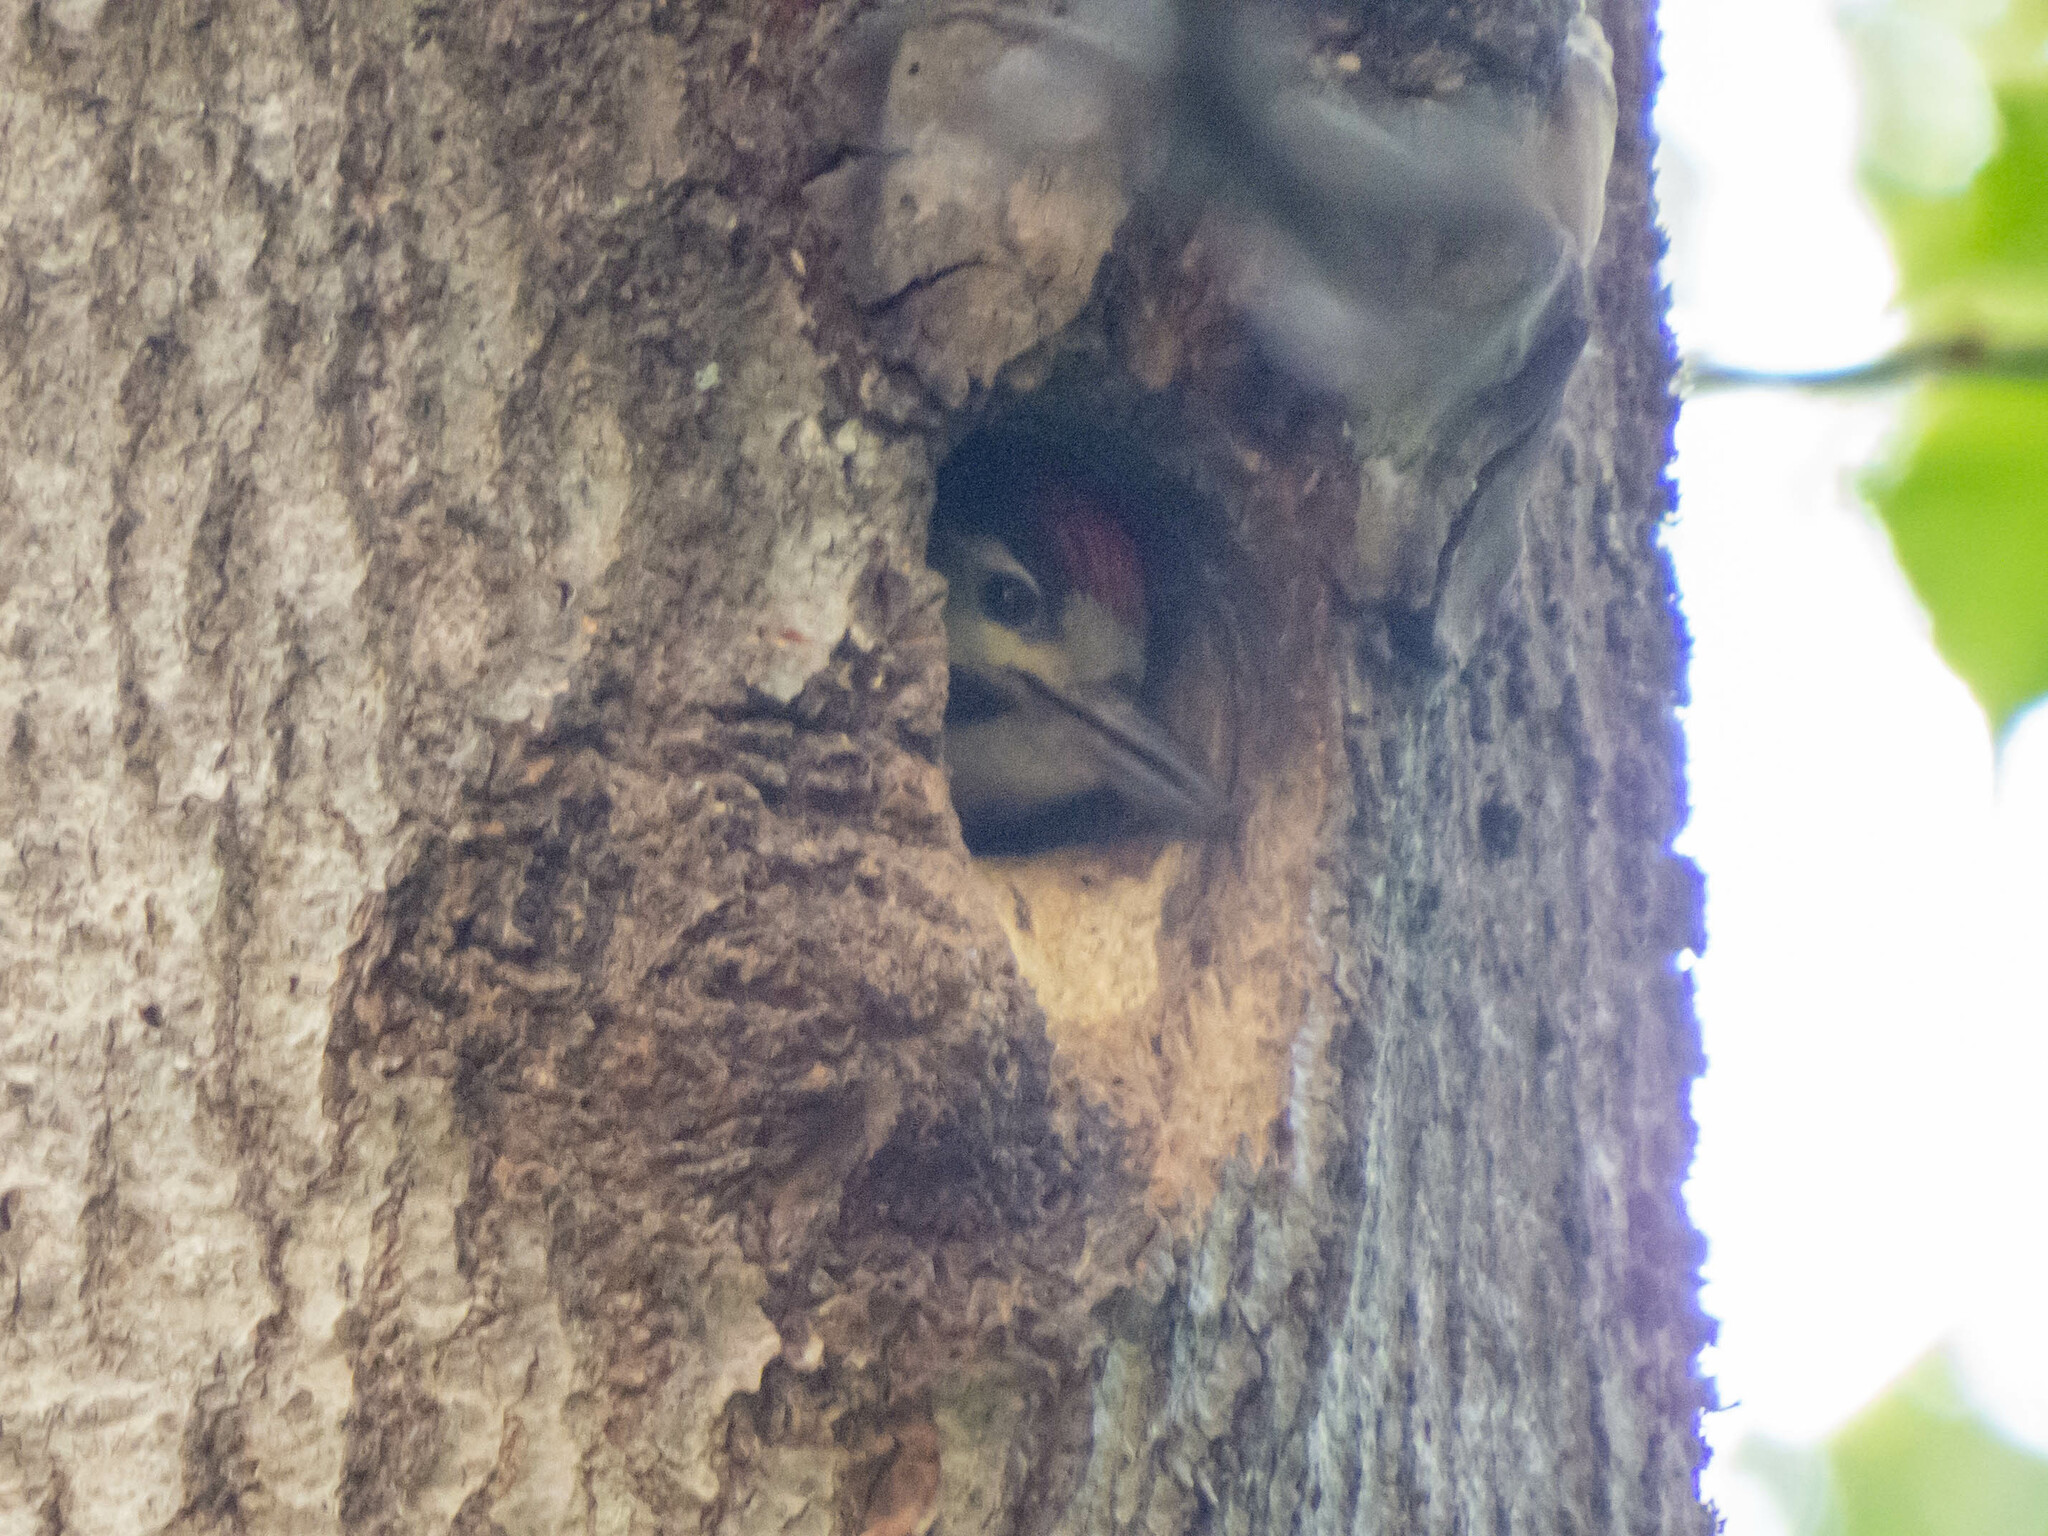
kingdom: Animalia
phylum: Chordata
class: Aves
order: Piciformes
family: Picidae
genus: Dendrocopos
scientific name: Dendrocopos major
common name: Great spotted woodpecker
